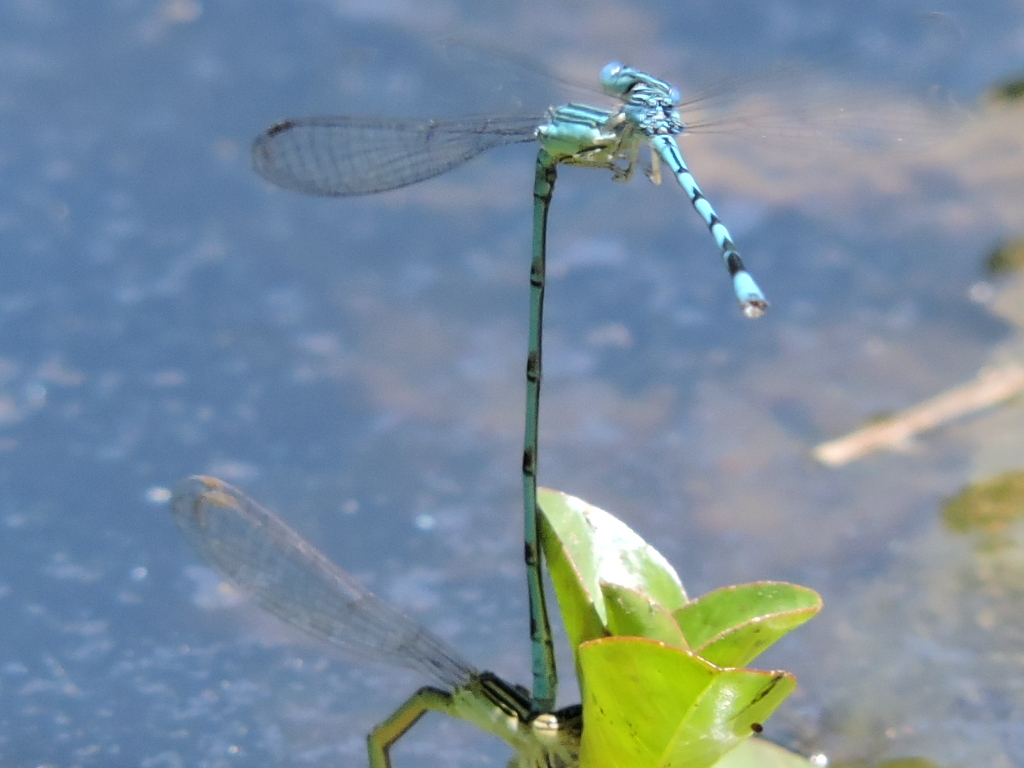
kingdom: Animalia
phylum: Arthropoda
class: Insecta
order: Odonata
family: Coenagrionidae
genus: Enallagma
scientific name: Enallagma basidens
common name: Double-striped bluet
